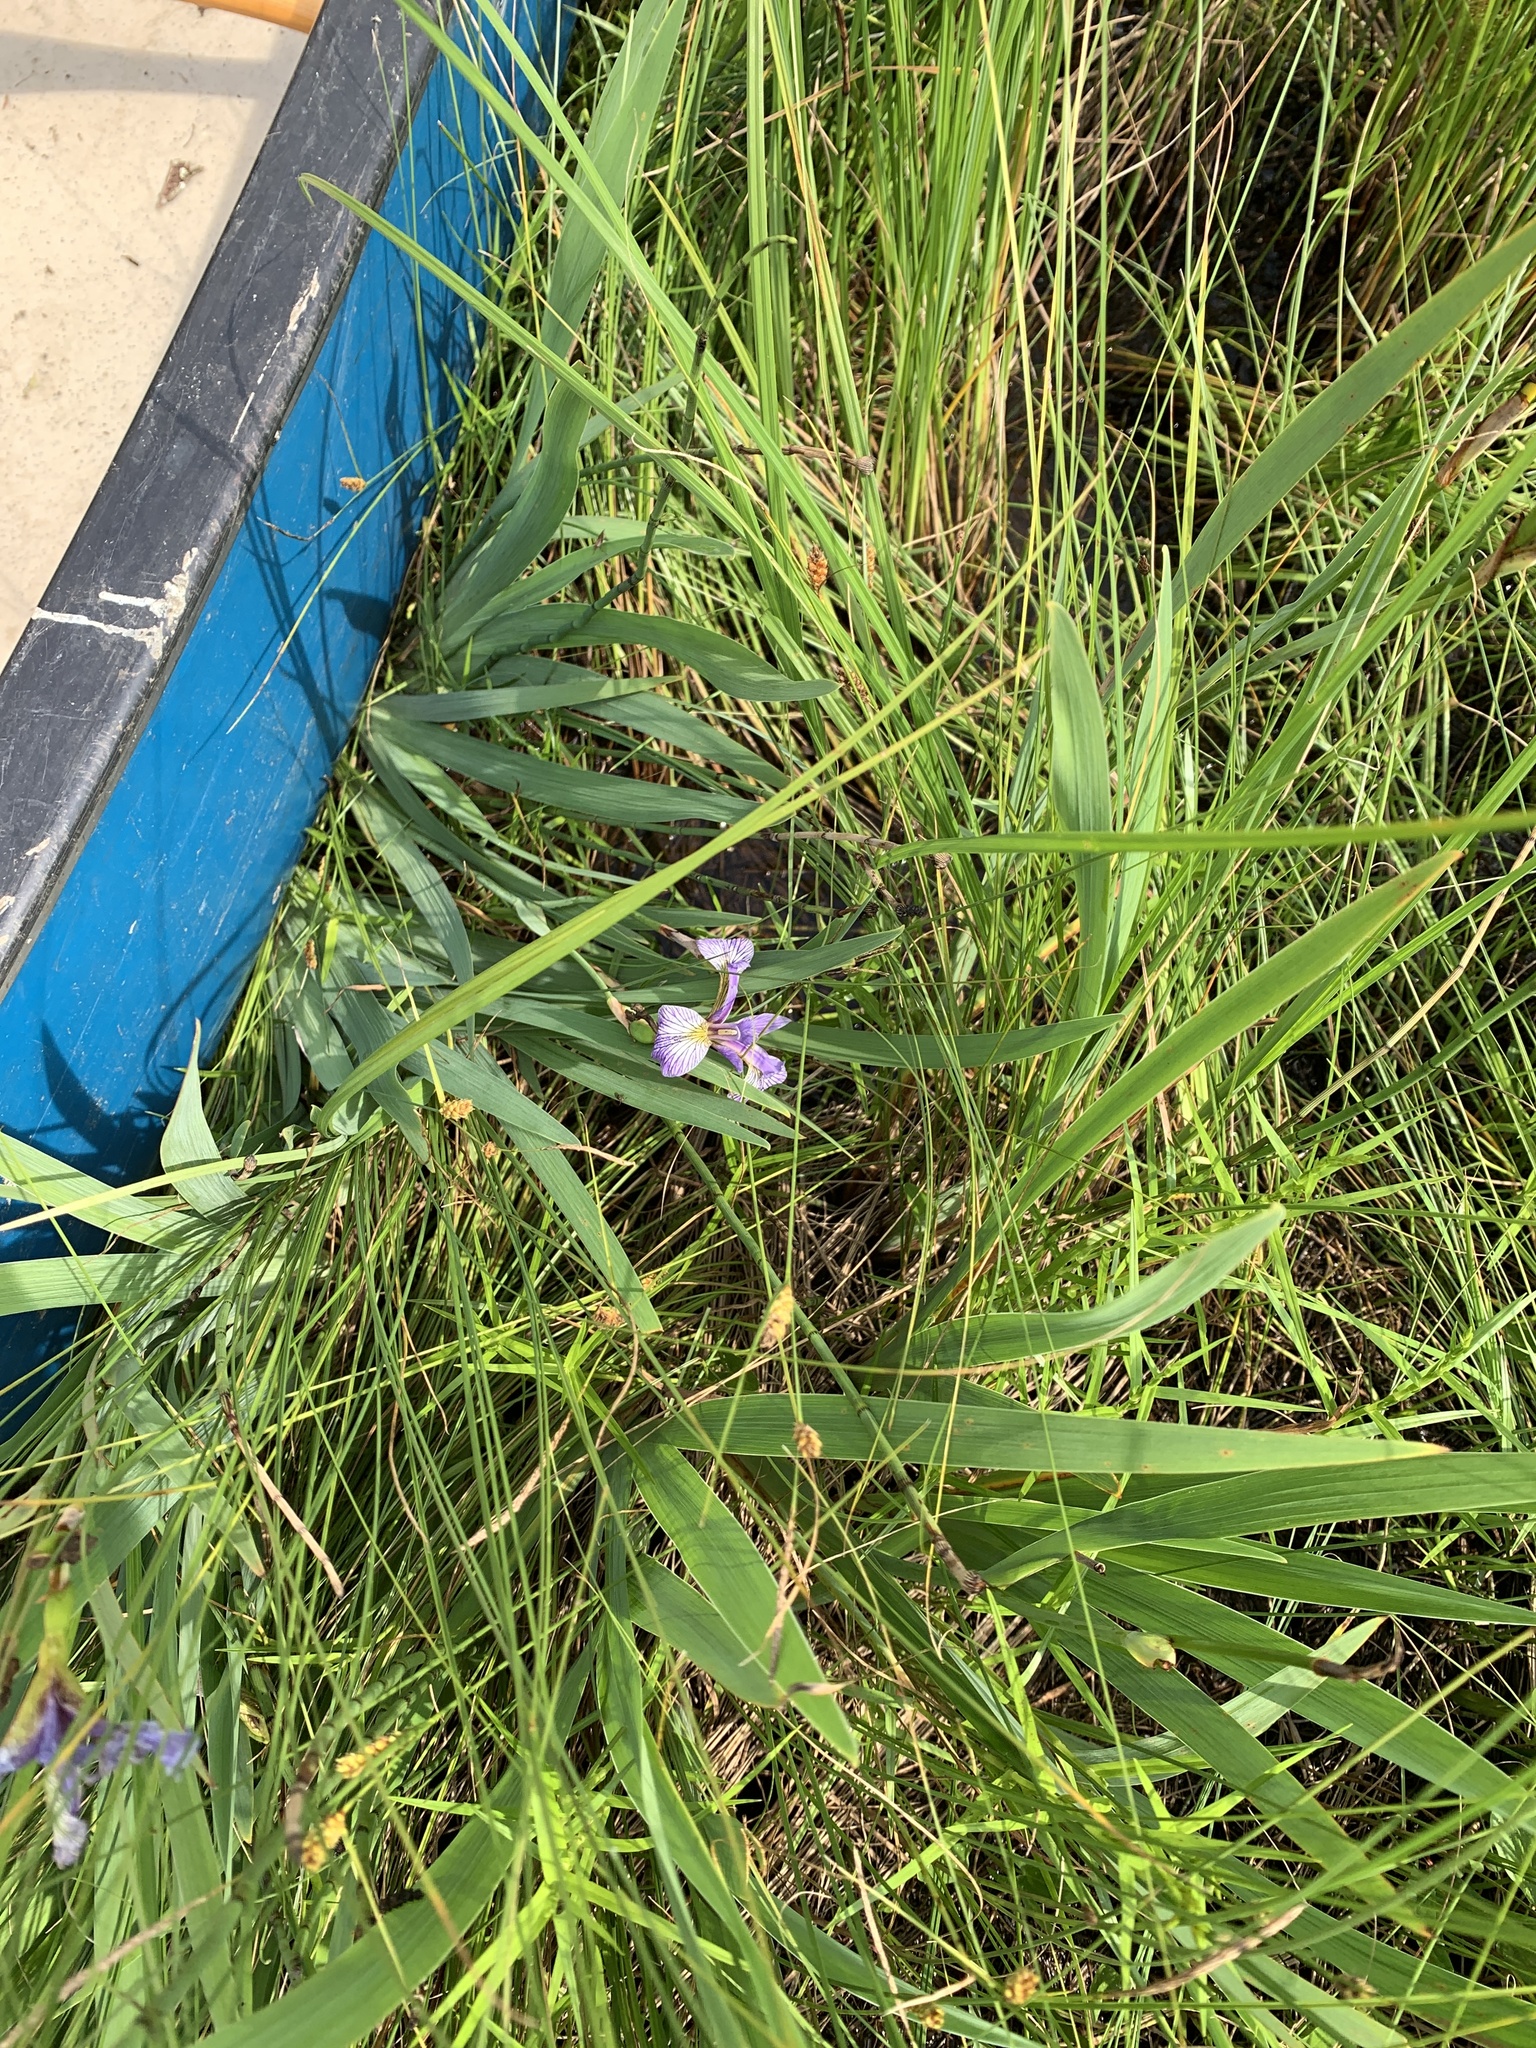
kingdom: Plantae
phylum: Tracheophyta
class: Liliopsida
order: Asparagales
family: Iridaceae
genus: Iris
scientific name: Iris versicolor
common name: Purple iris
